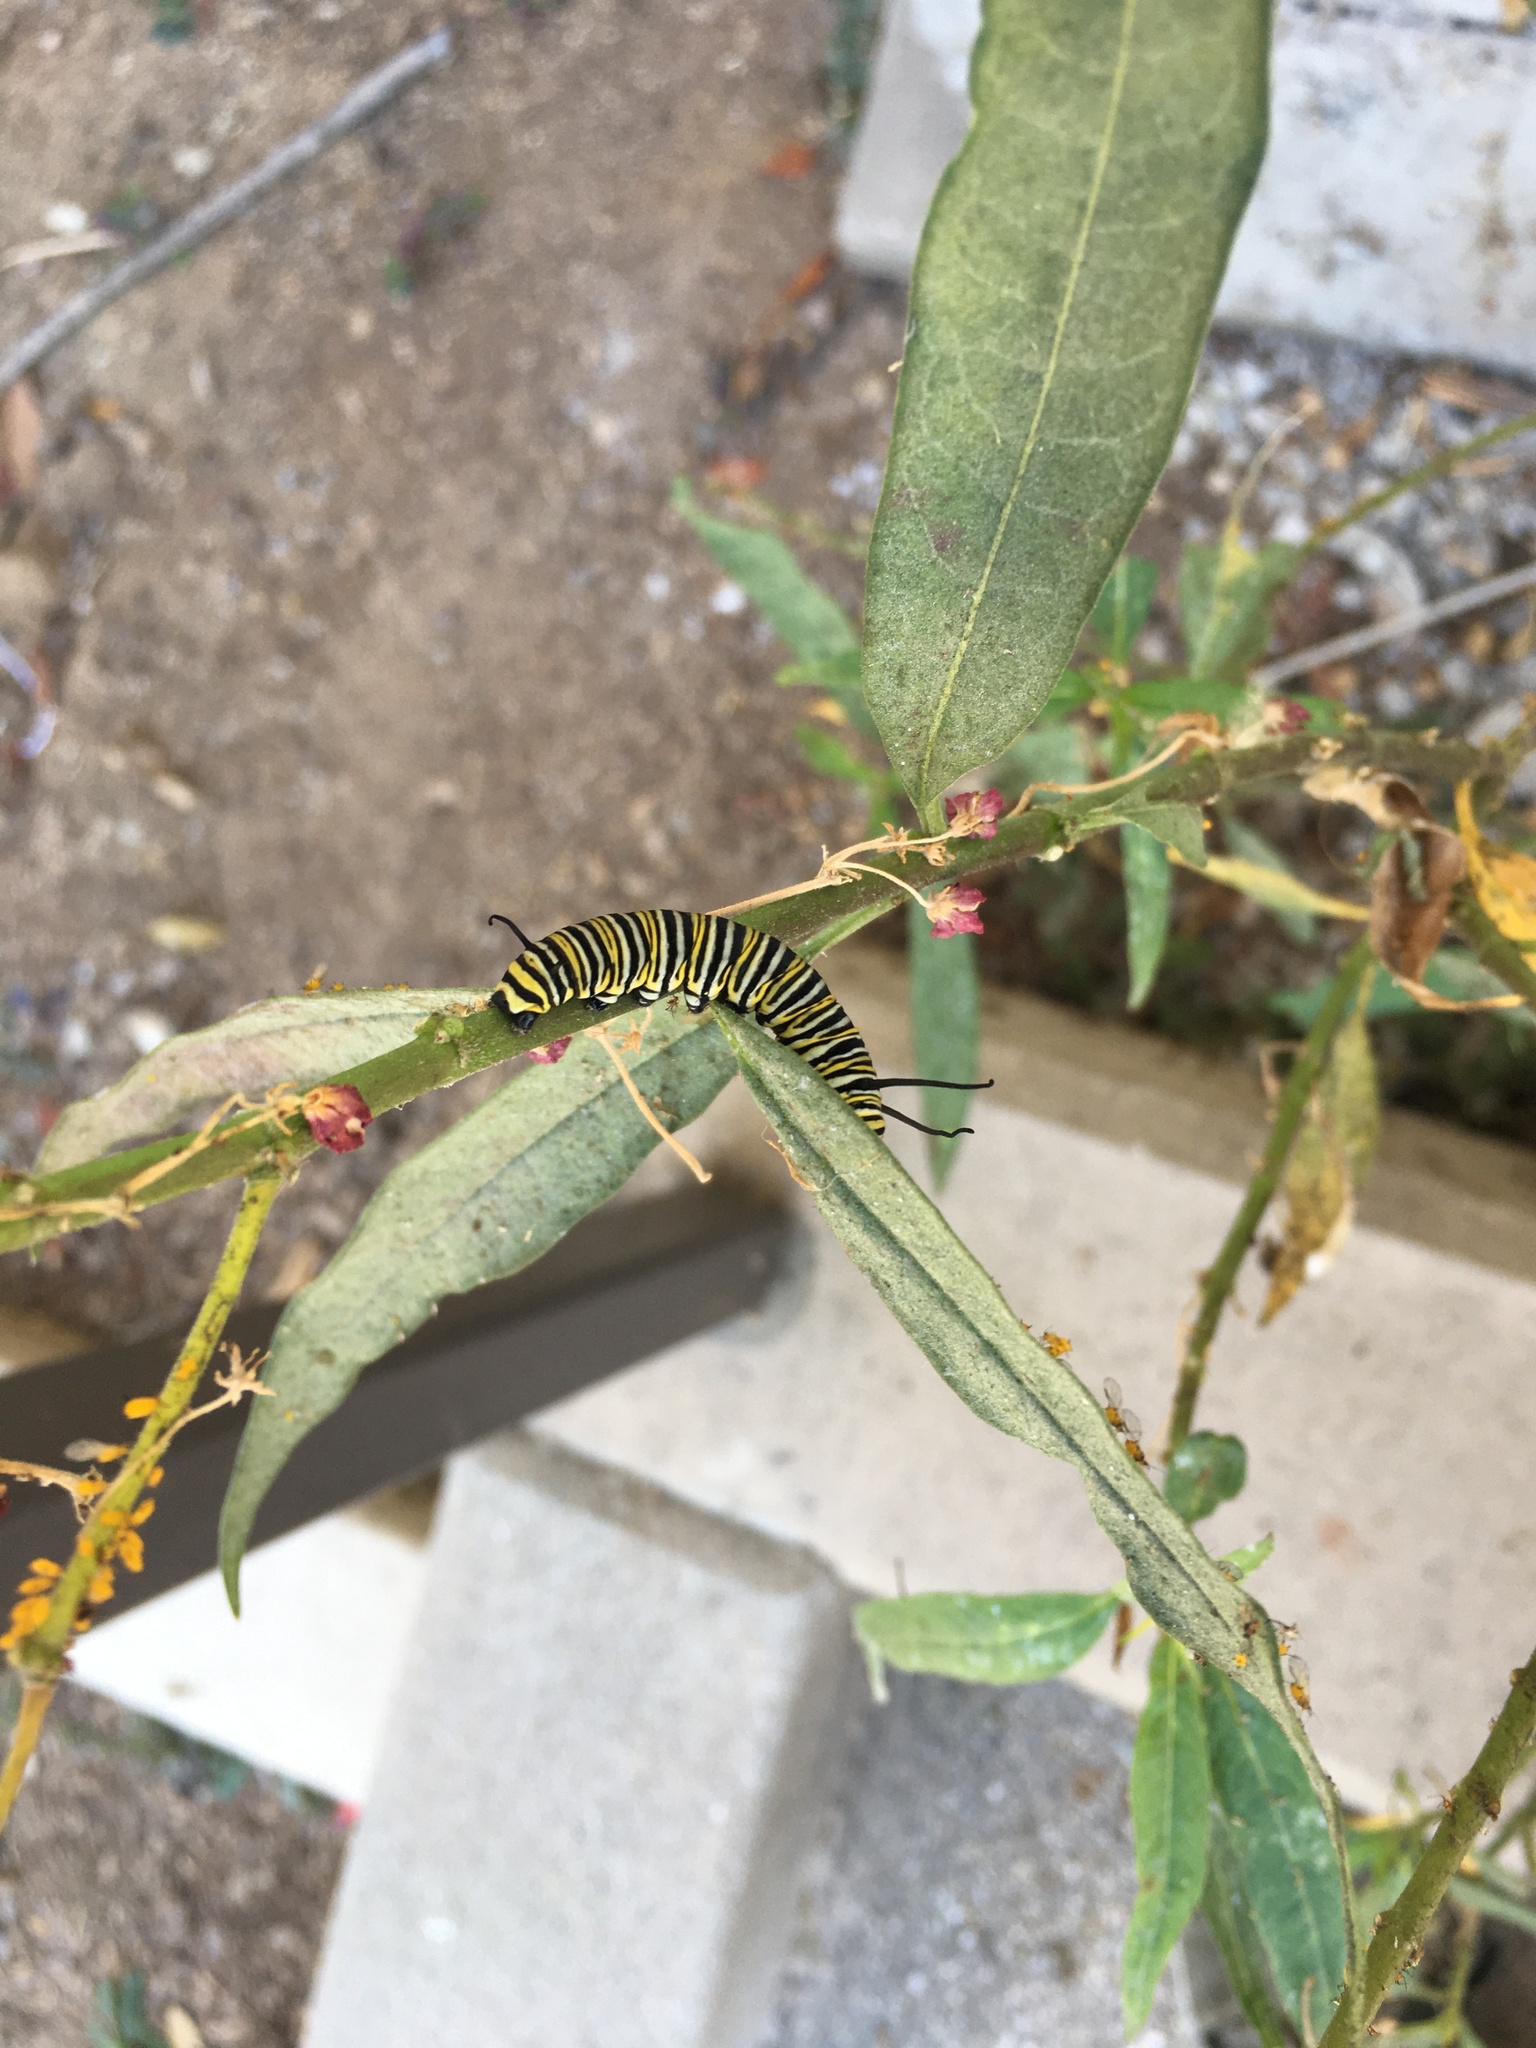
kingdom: Animalia
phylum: Arthropoda
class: Insecta
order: Lepidoptera
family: Nymphalidae
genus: Danaus
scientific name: Danaus plexippus
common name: Monarch
